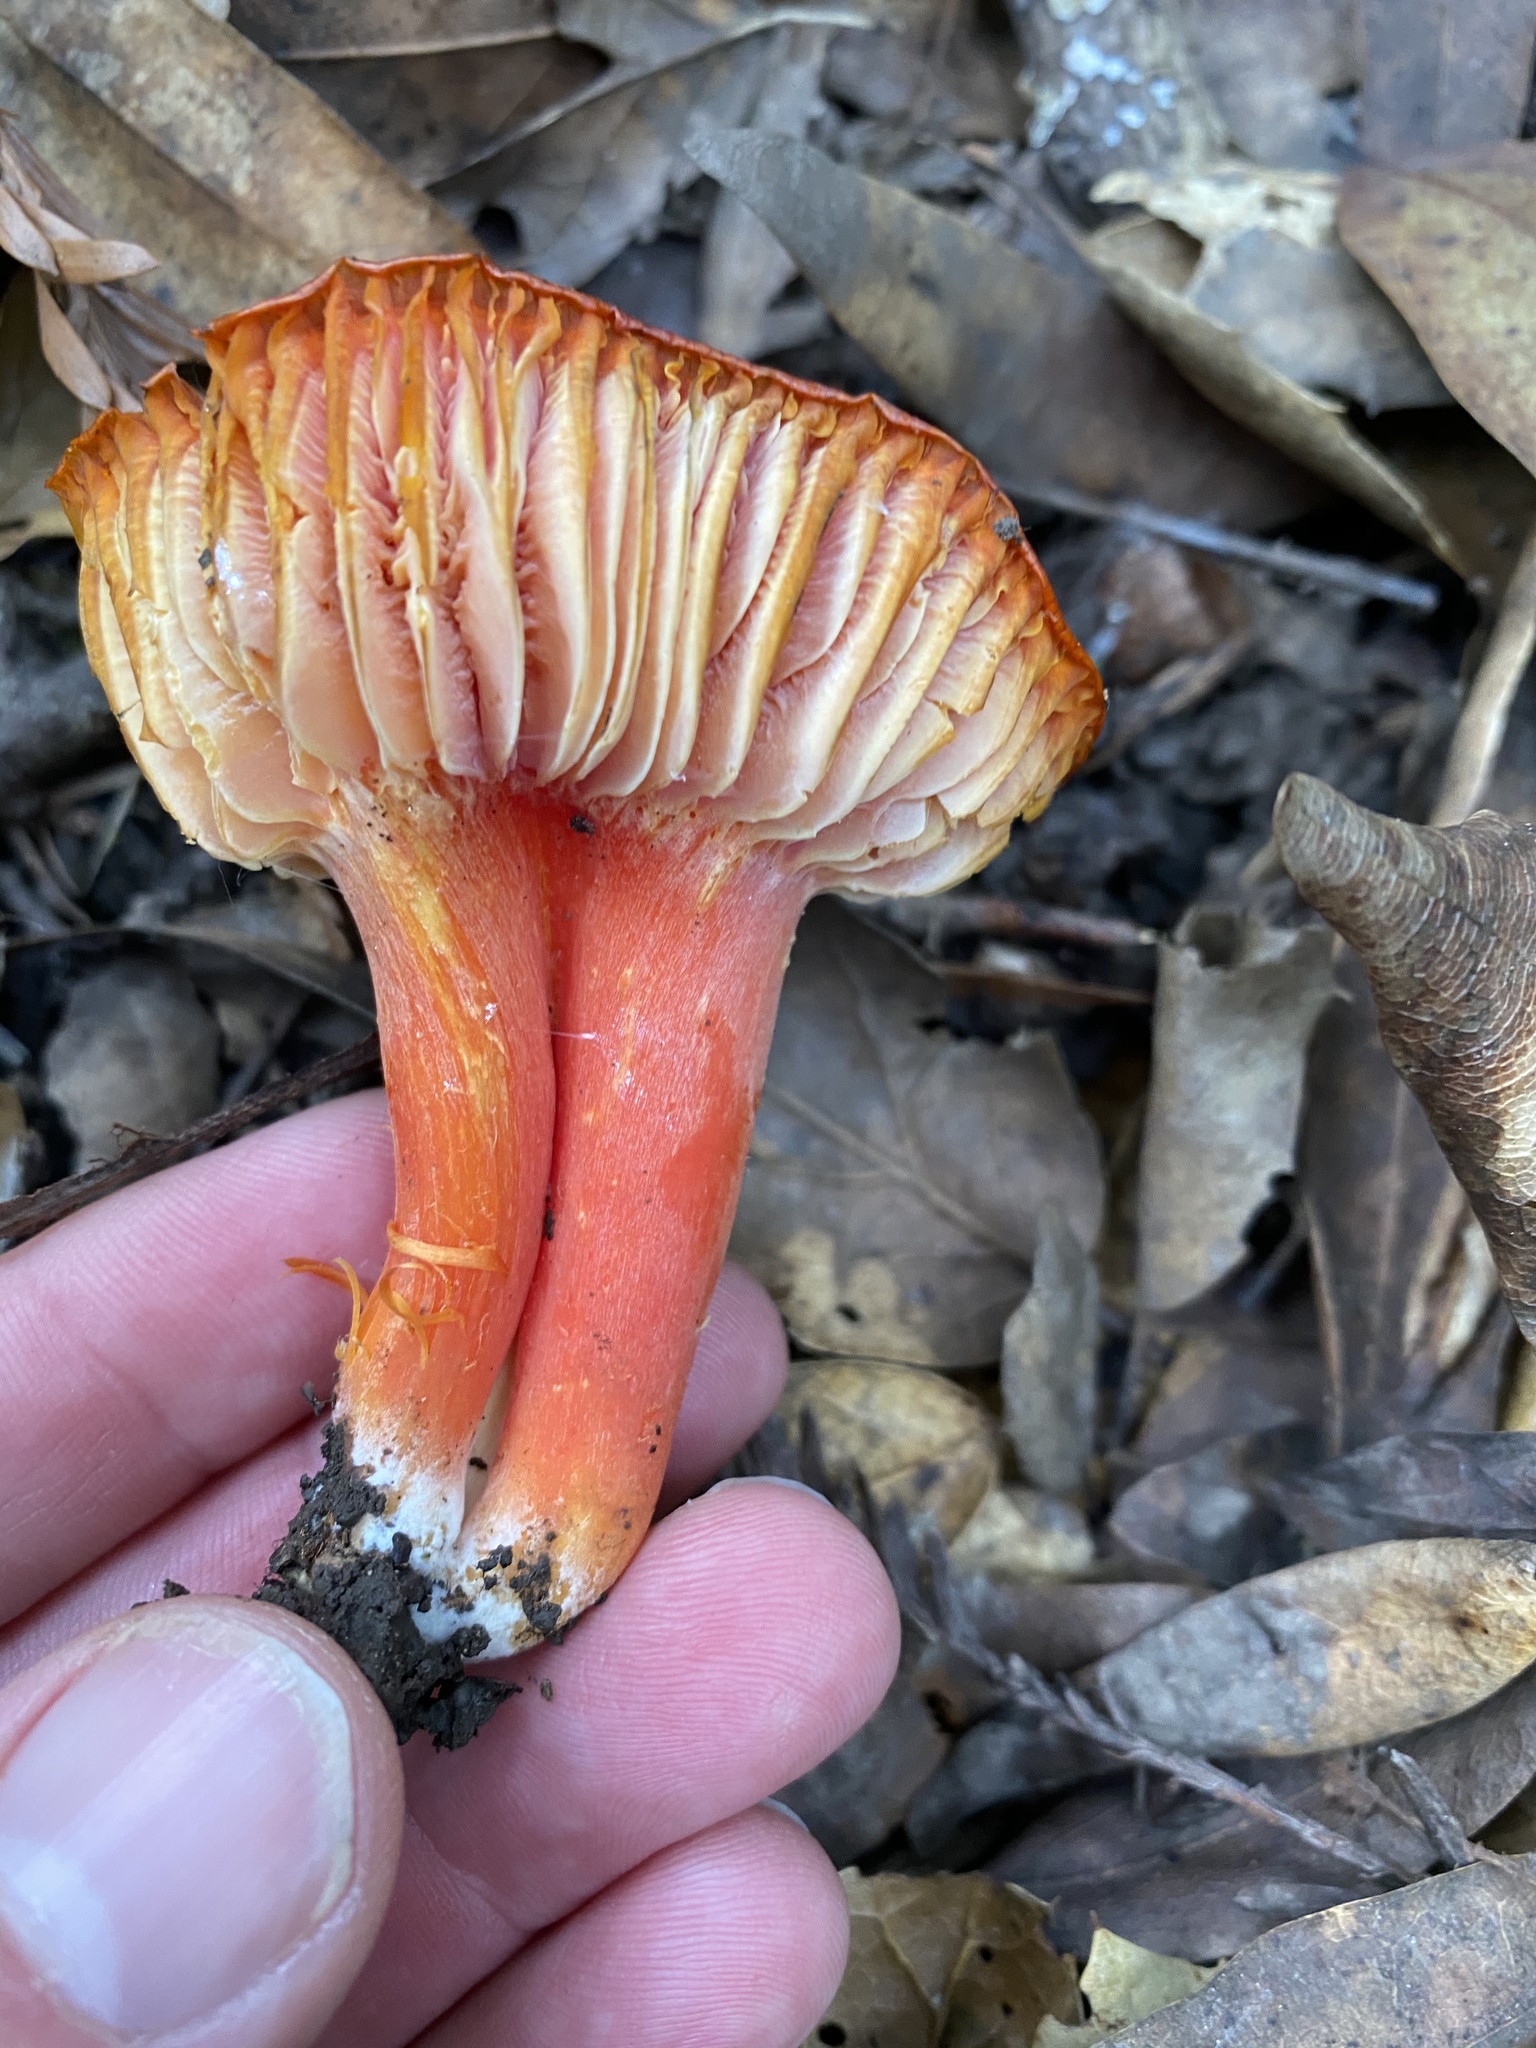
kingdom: Fungi
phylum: Basidiomycota
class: Agaricomycetes
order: Agaricales
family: Hygrophoraceae
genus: Hygrocybe
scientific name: Hygrocybe coccinea
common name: Scarlet hood
